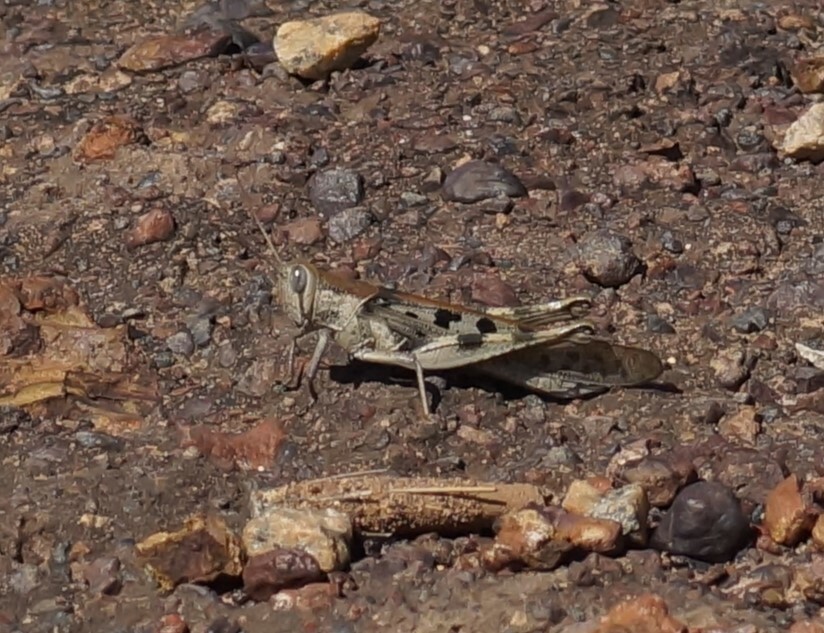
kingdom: Animalia
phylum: Arthropoda
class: Insecta
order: Orthoptera
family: Acrididae
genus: Austracris
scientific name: Austracris basalis
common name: Spotted spur-throated locust
